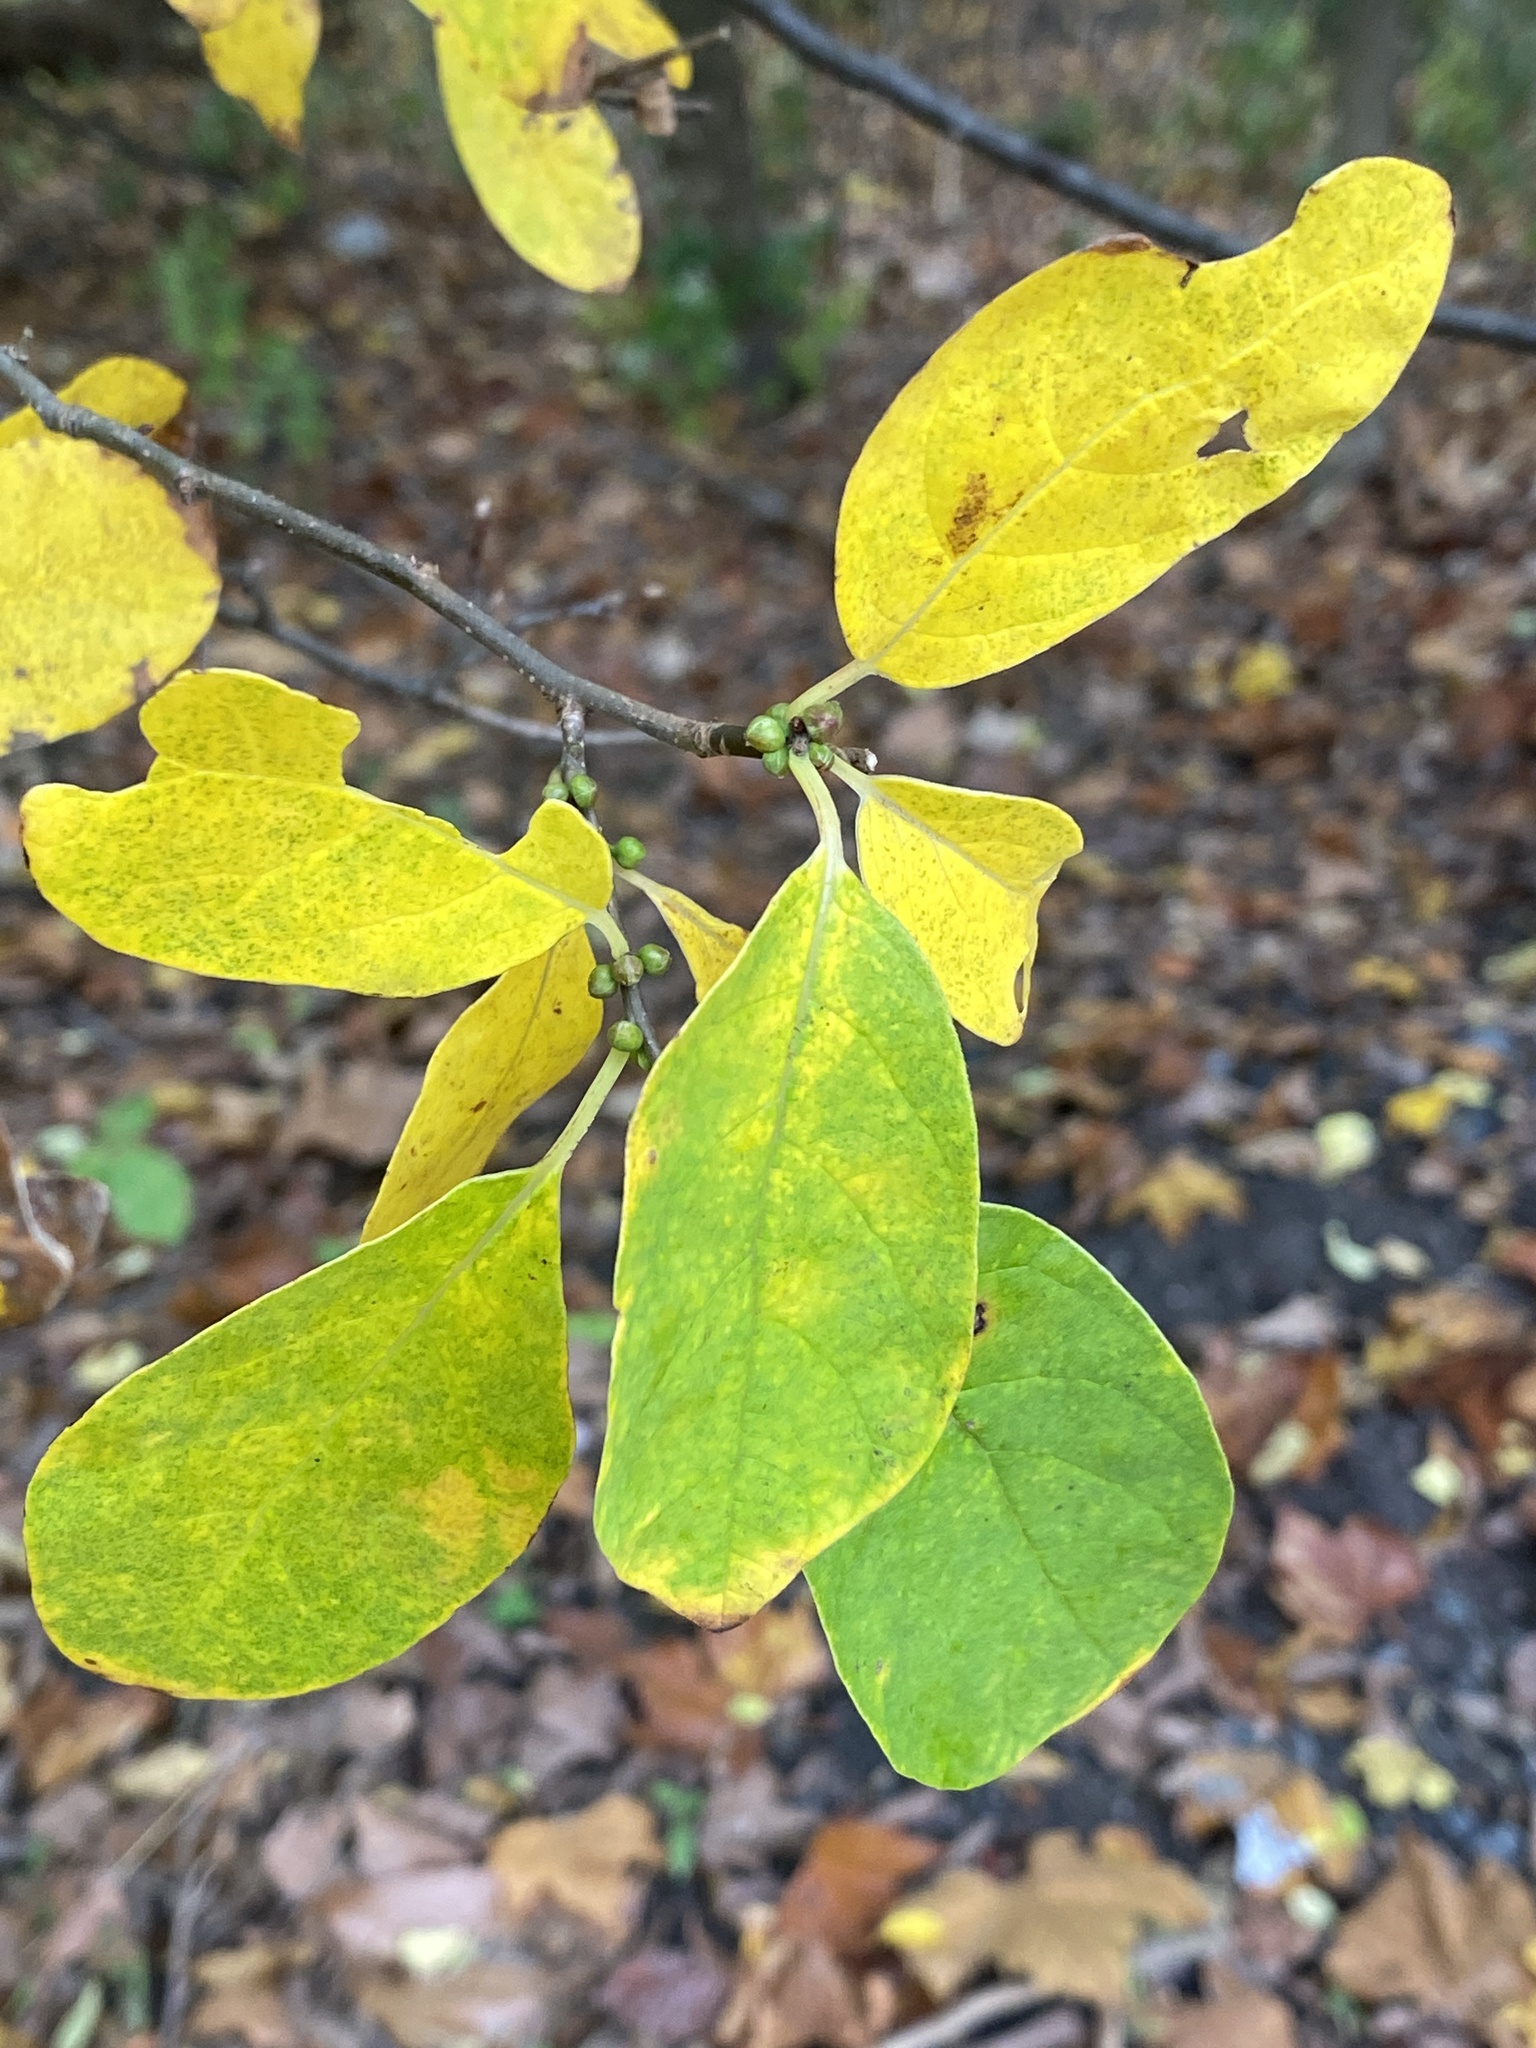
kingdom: Plantae
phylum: Tracheophyta
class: Magnoliopsida
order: Laurales
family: Lauraceae
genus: Lindera
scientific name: Lindera benzoin
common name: Spicebush
